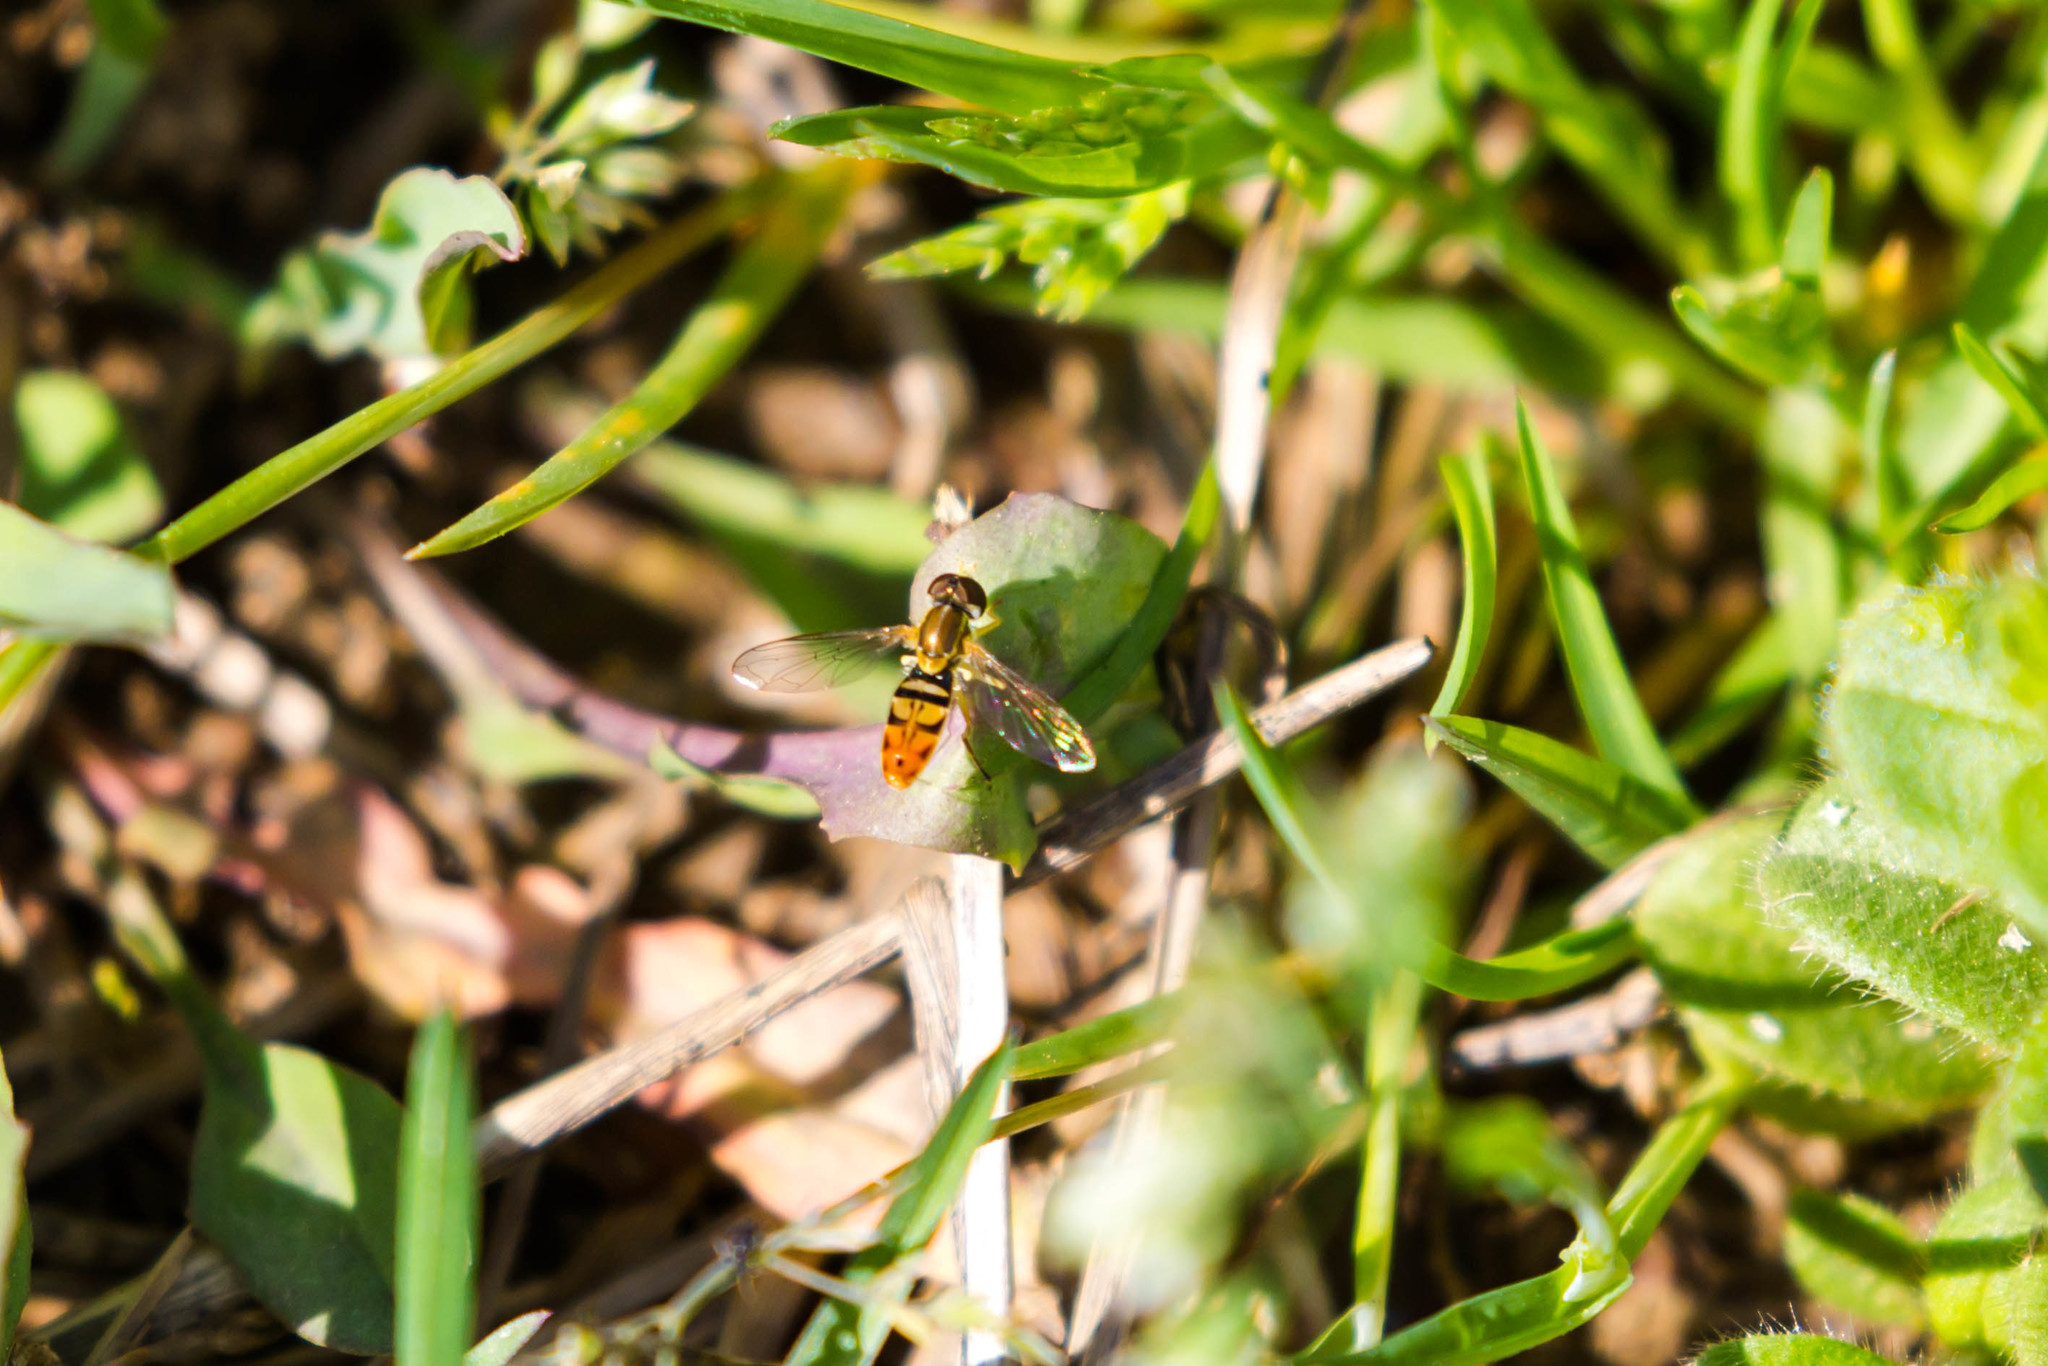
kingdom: Animalia
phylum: Arthropoda
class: Insecta
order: Diptera
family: Syrphidae
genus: Toxomerus
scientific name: Toxomerus marginatus
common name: Syrphid fly
